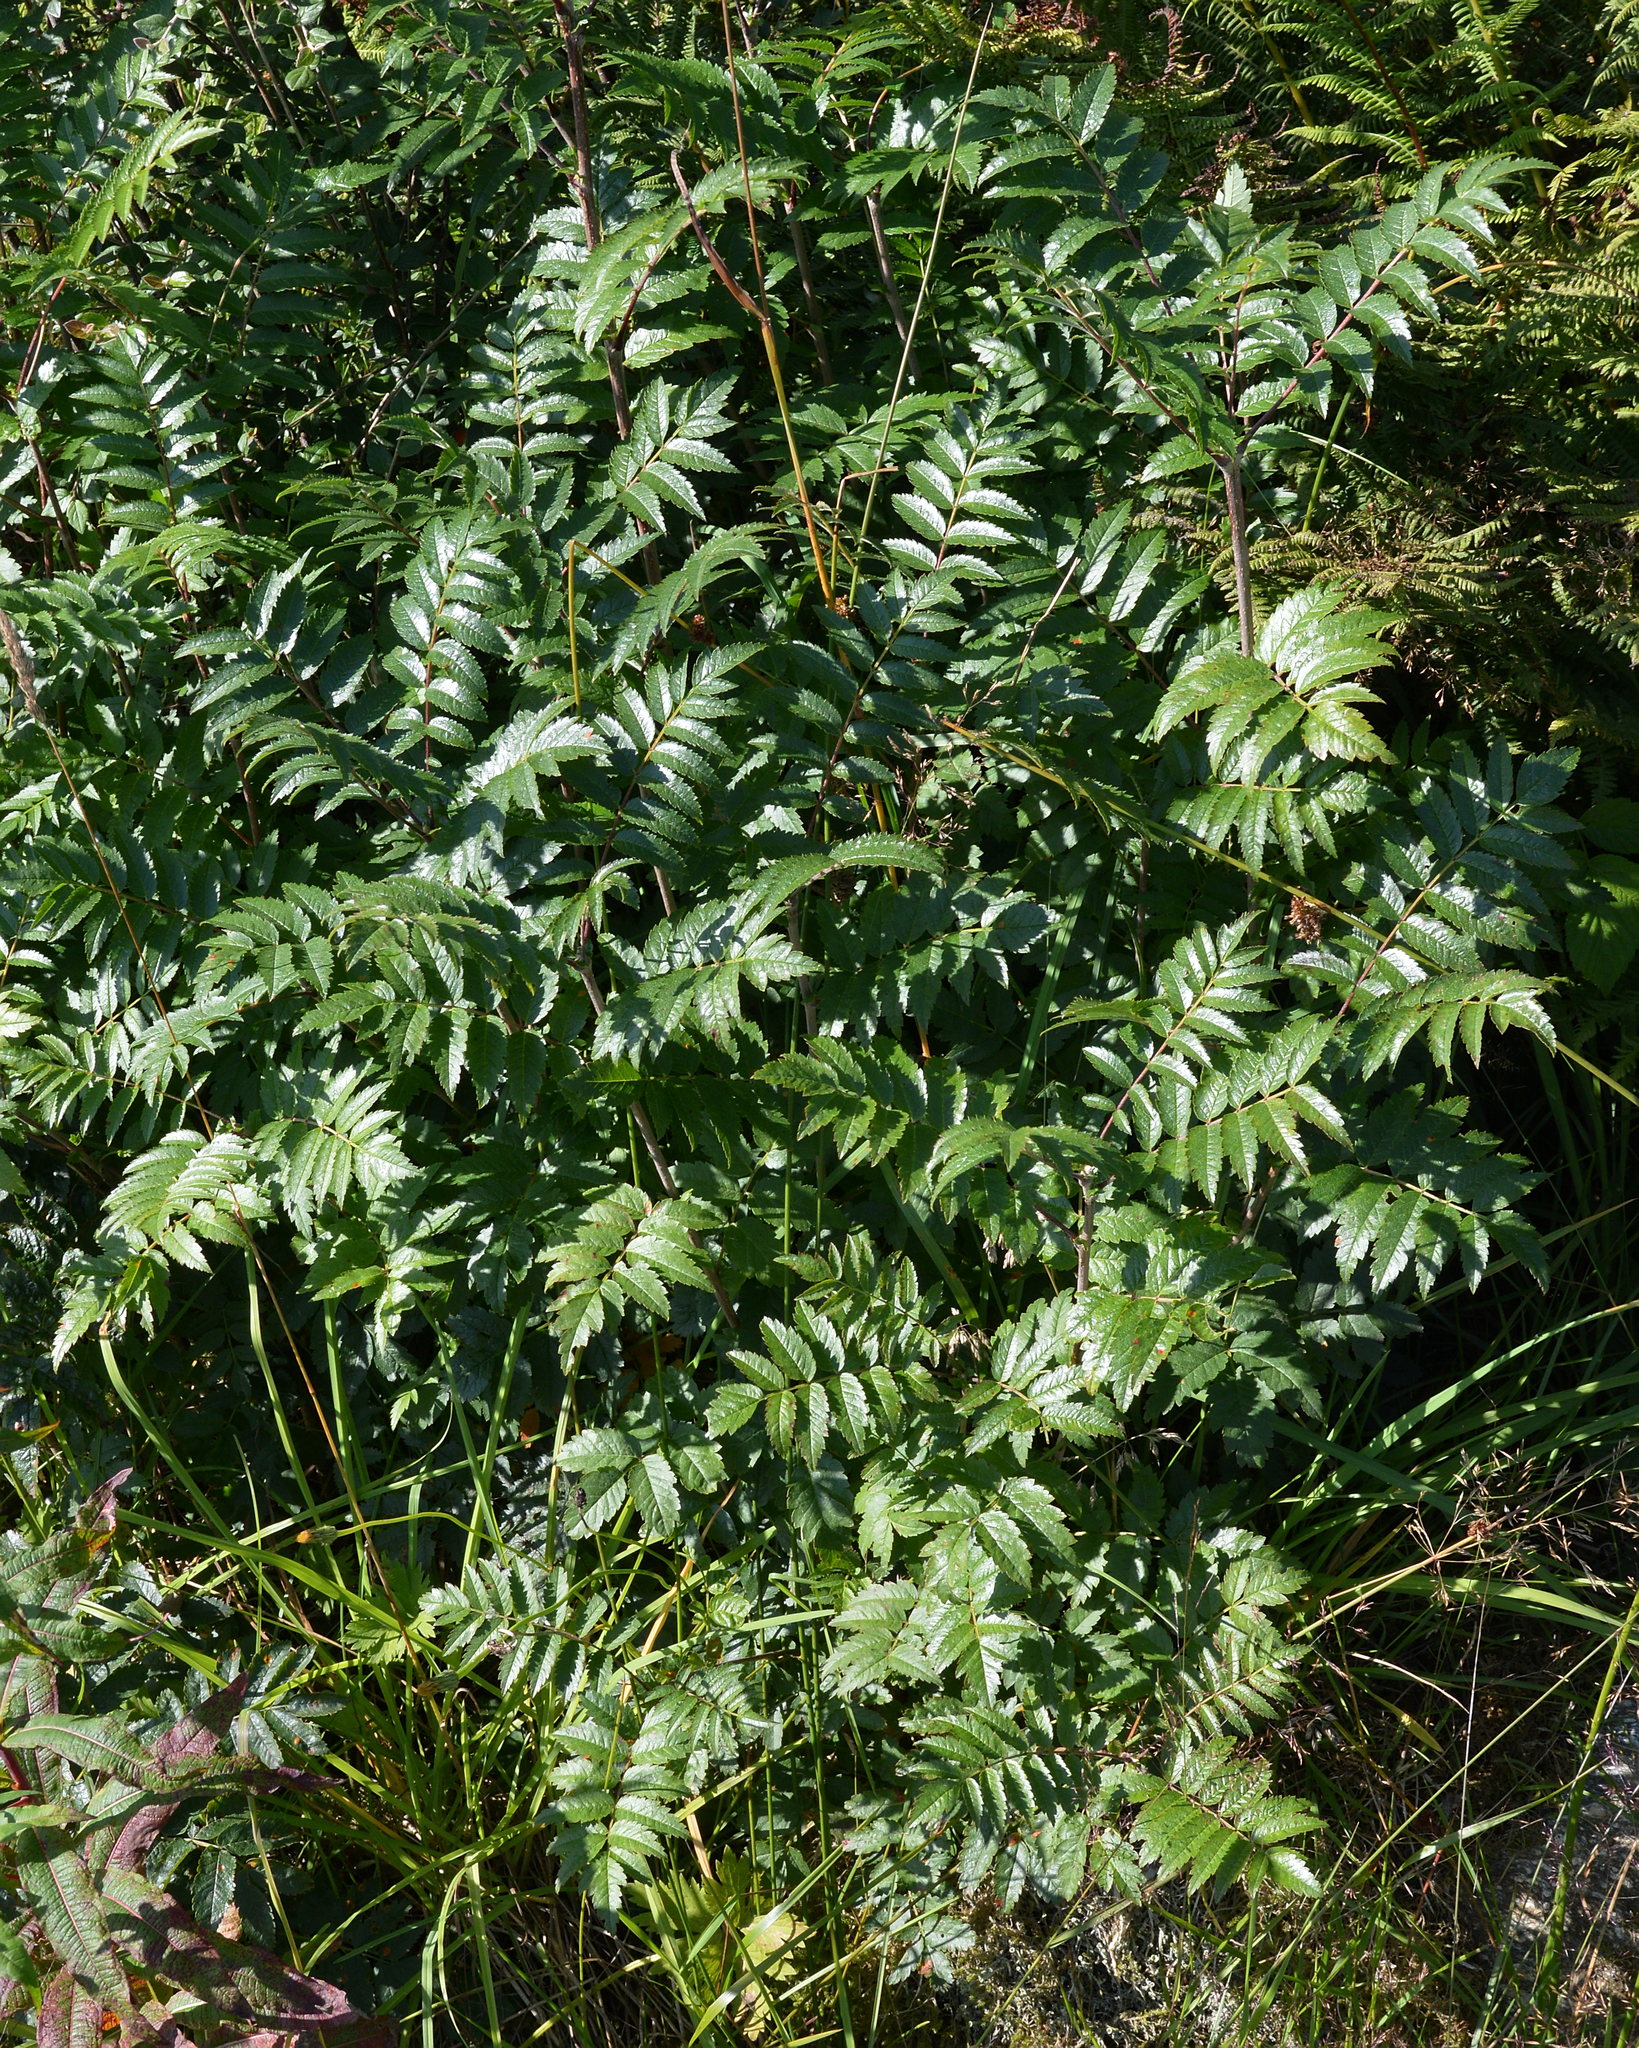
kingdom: Plantae
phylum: Tracheophyta
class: Magnoliopsida
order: Rosales
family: Rosaceae
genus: Sorbus
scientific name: Sorbus aucuparia
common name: Rowan
